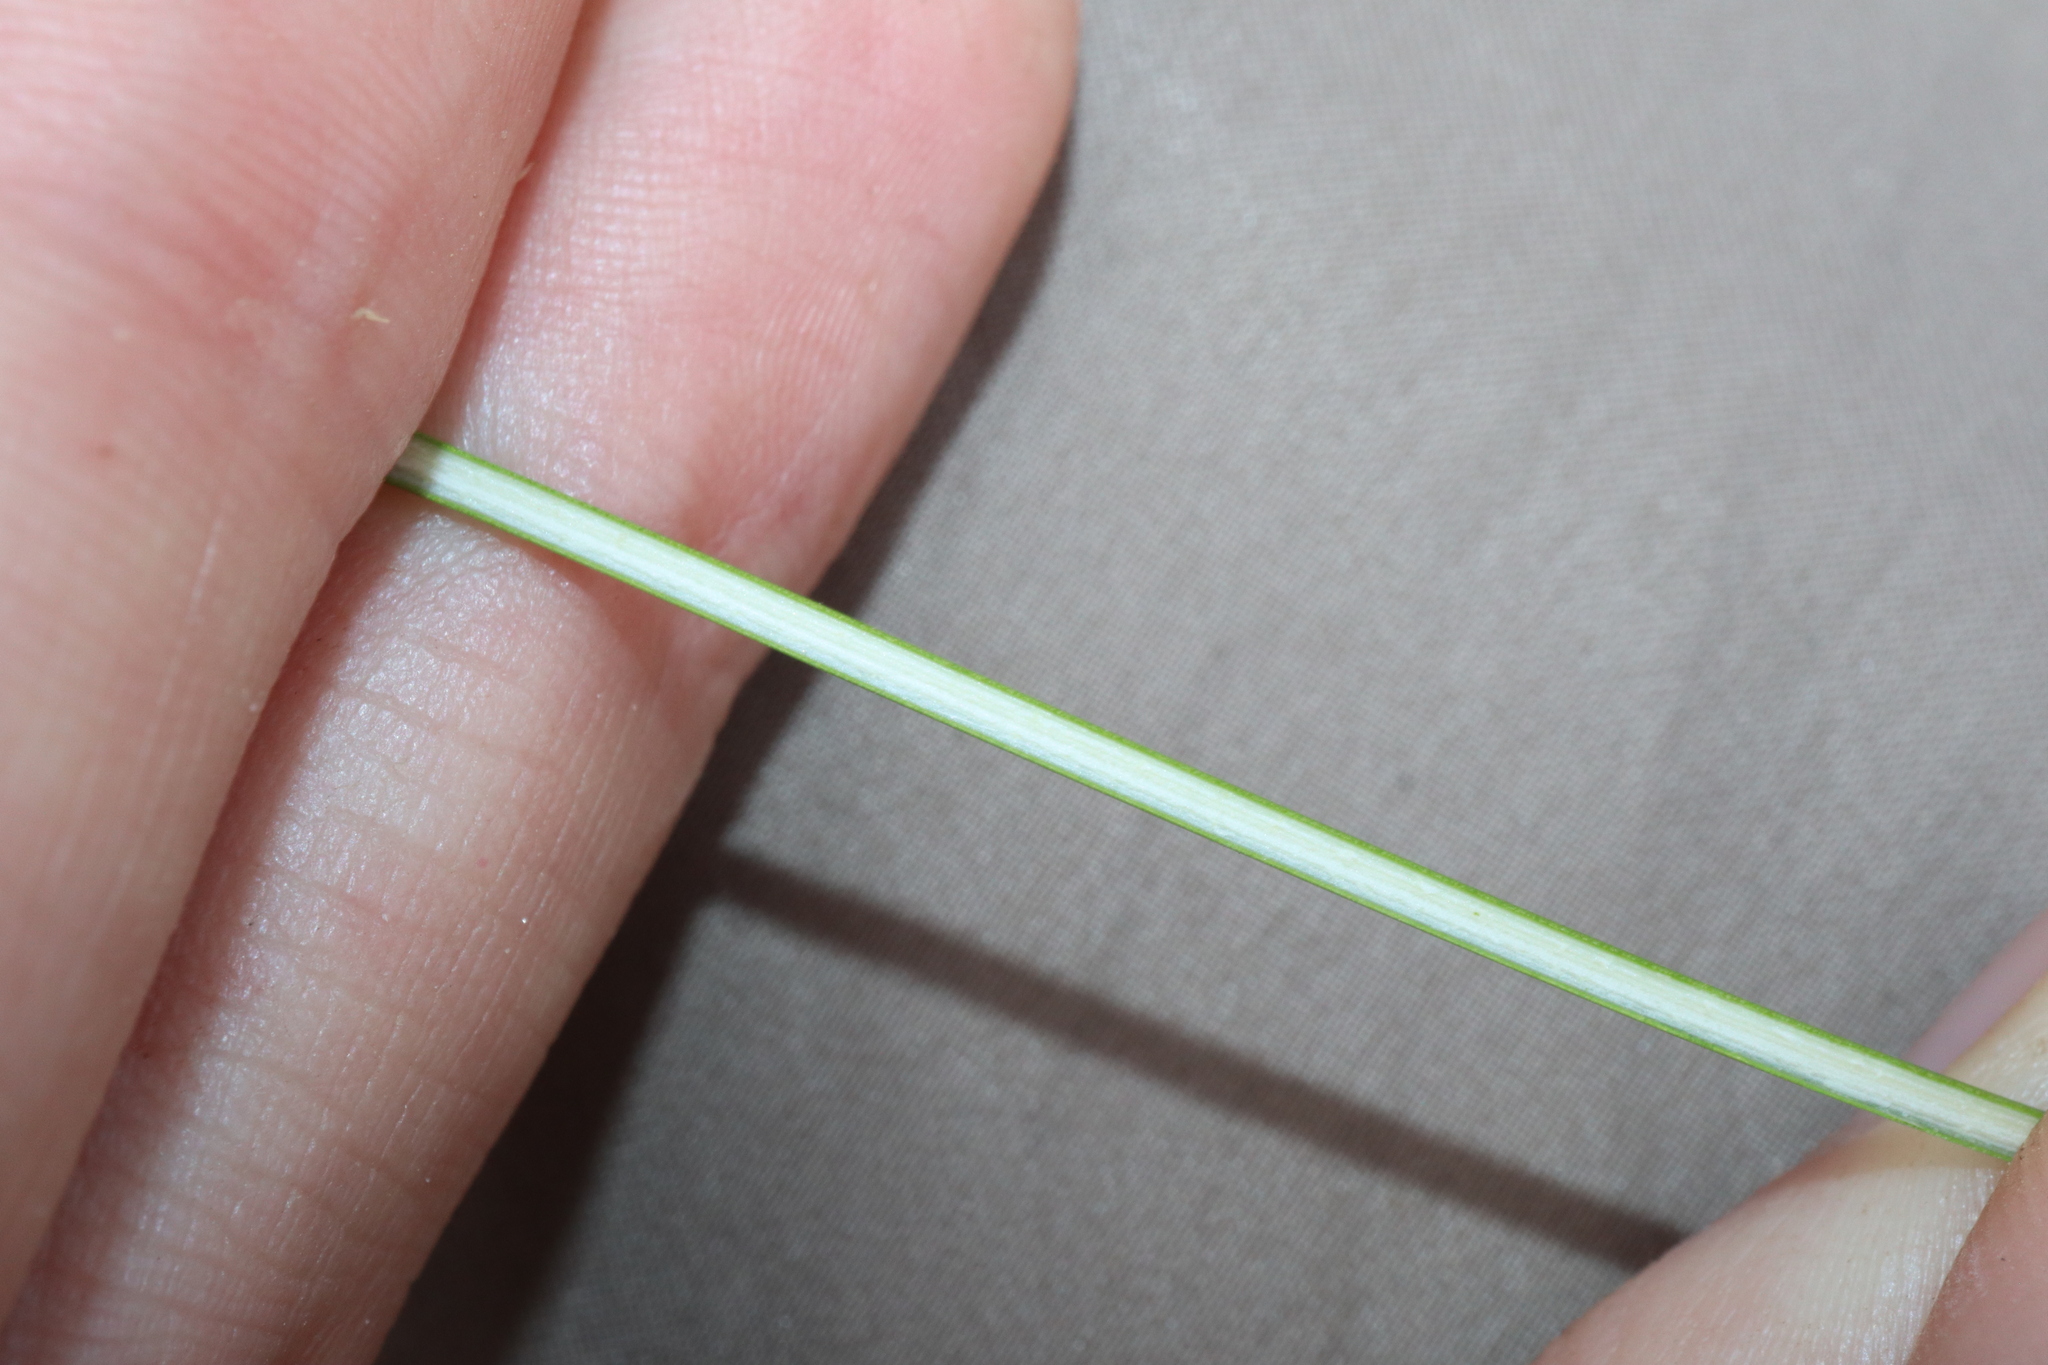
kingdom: Plantae
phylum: Tracheophyta
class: Liliopsida
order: Poales
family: Juncaceae
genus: Juncus
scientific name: Juncus kraussii
